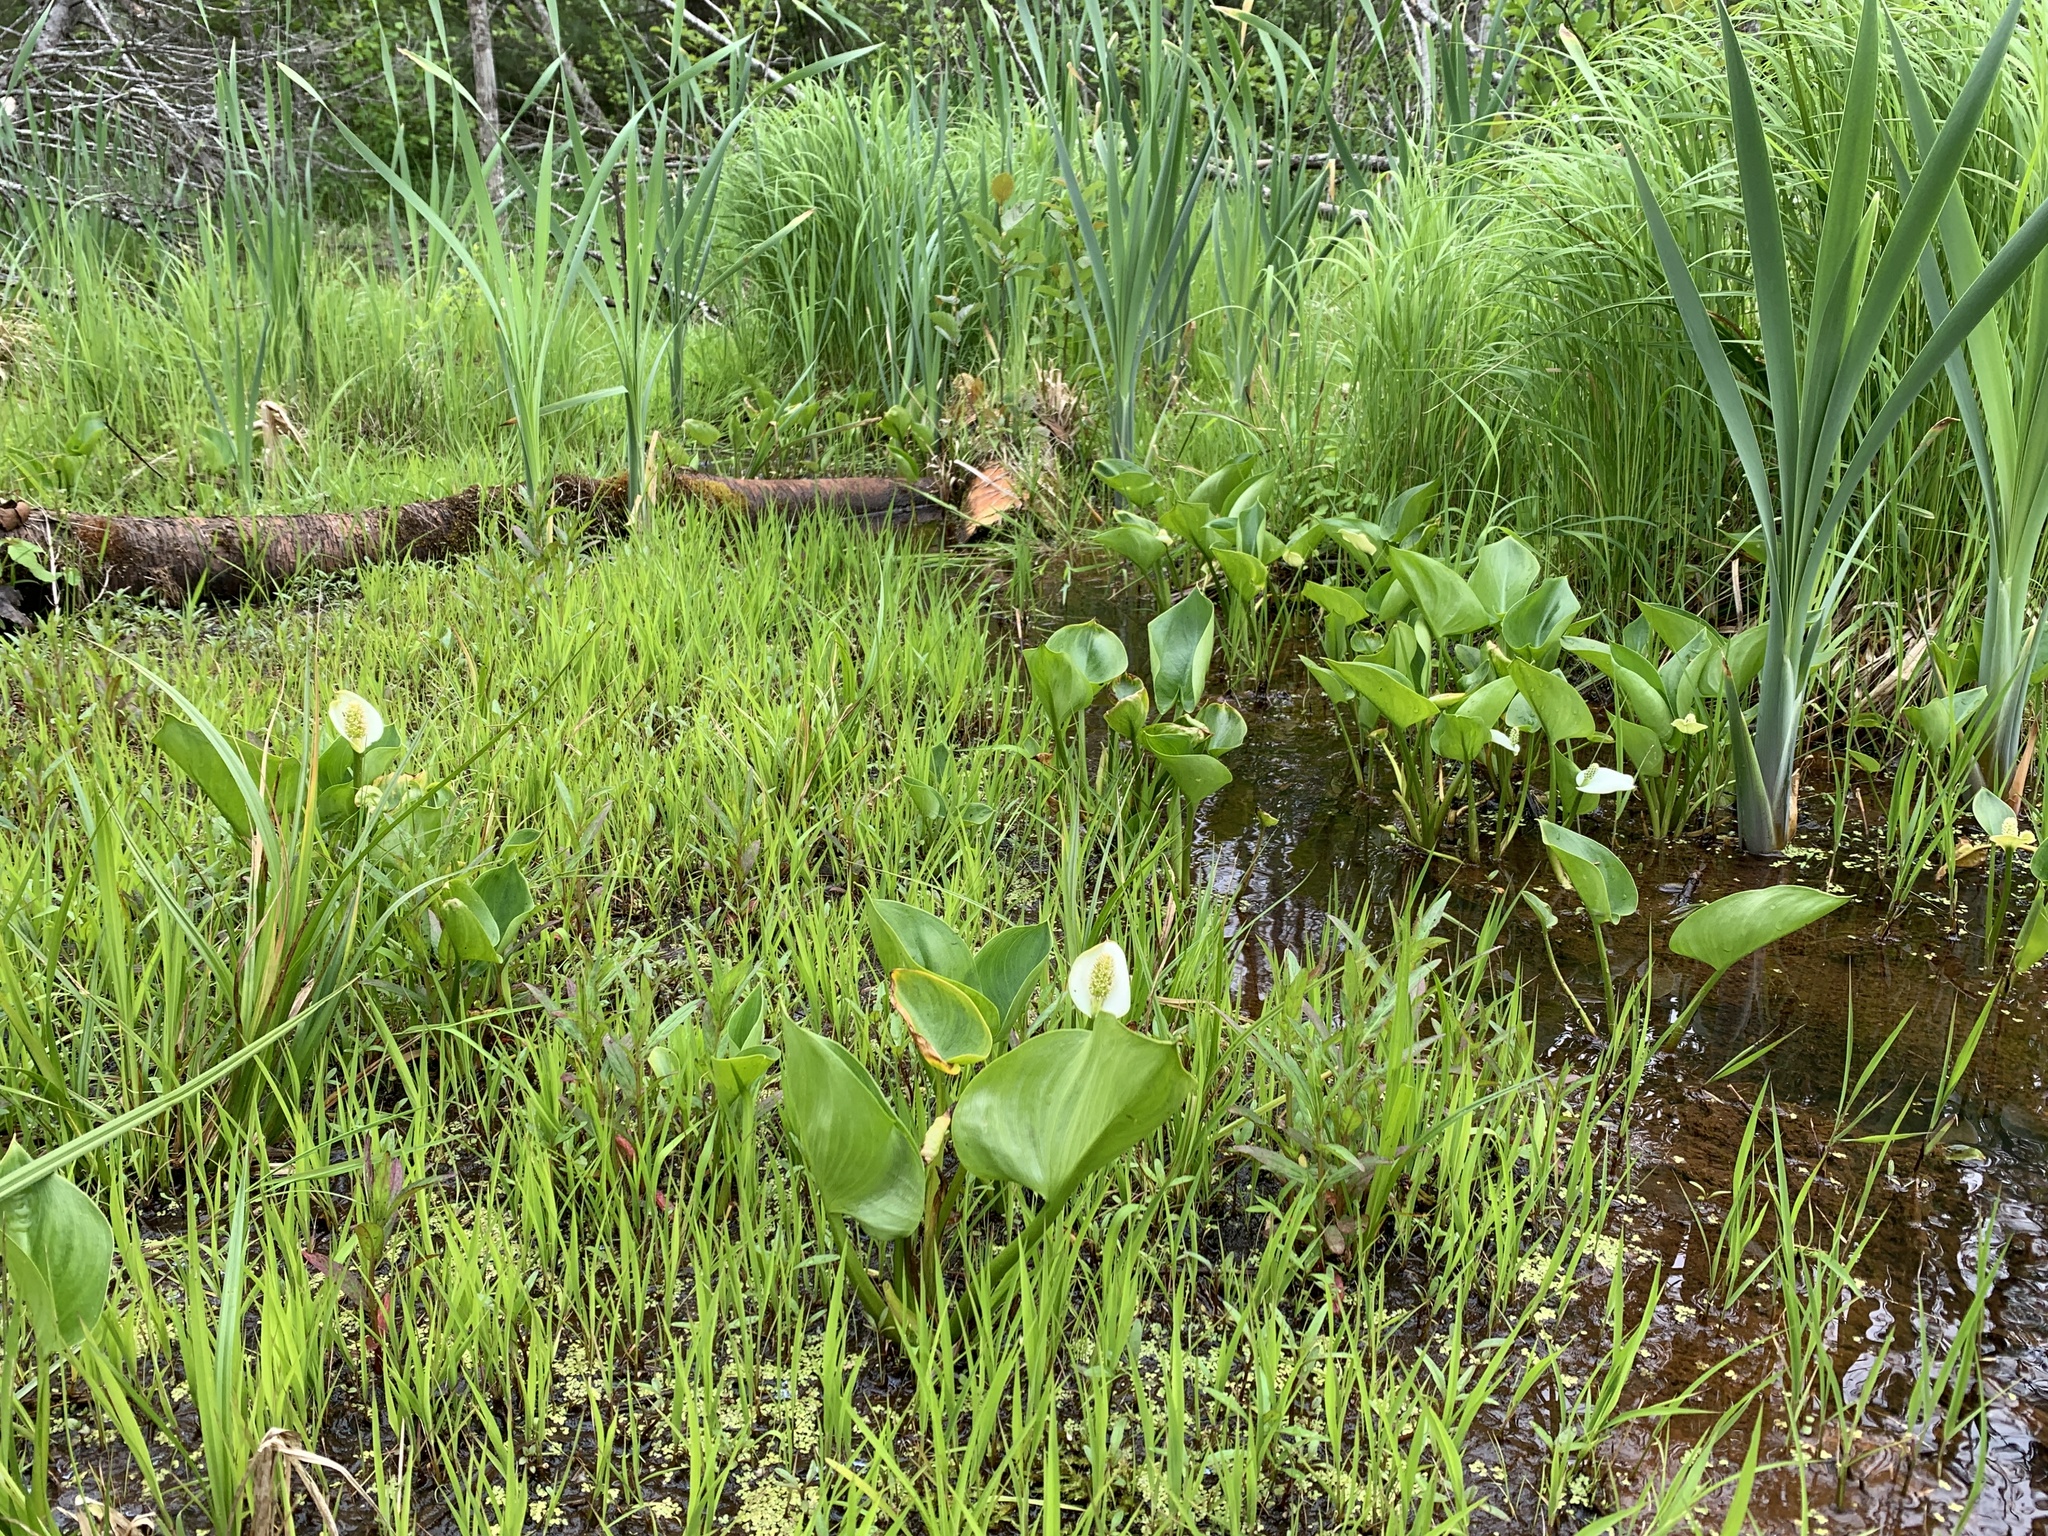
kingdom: Plantae
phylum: Tracheophyta
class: Liliopsida
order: Alismatales
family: Araceae
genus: Calla
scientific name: Calla palustris
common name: Bog arum
